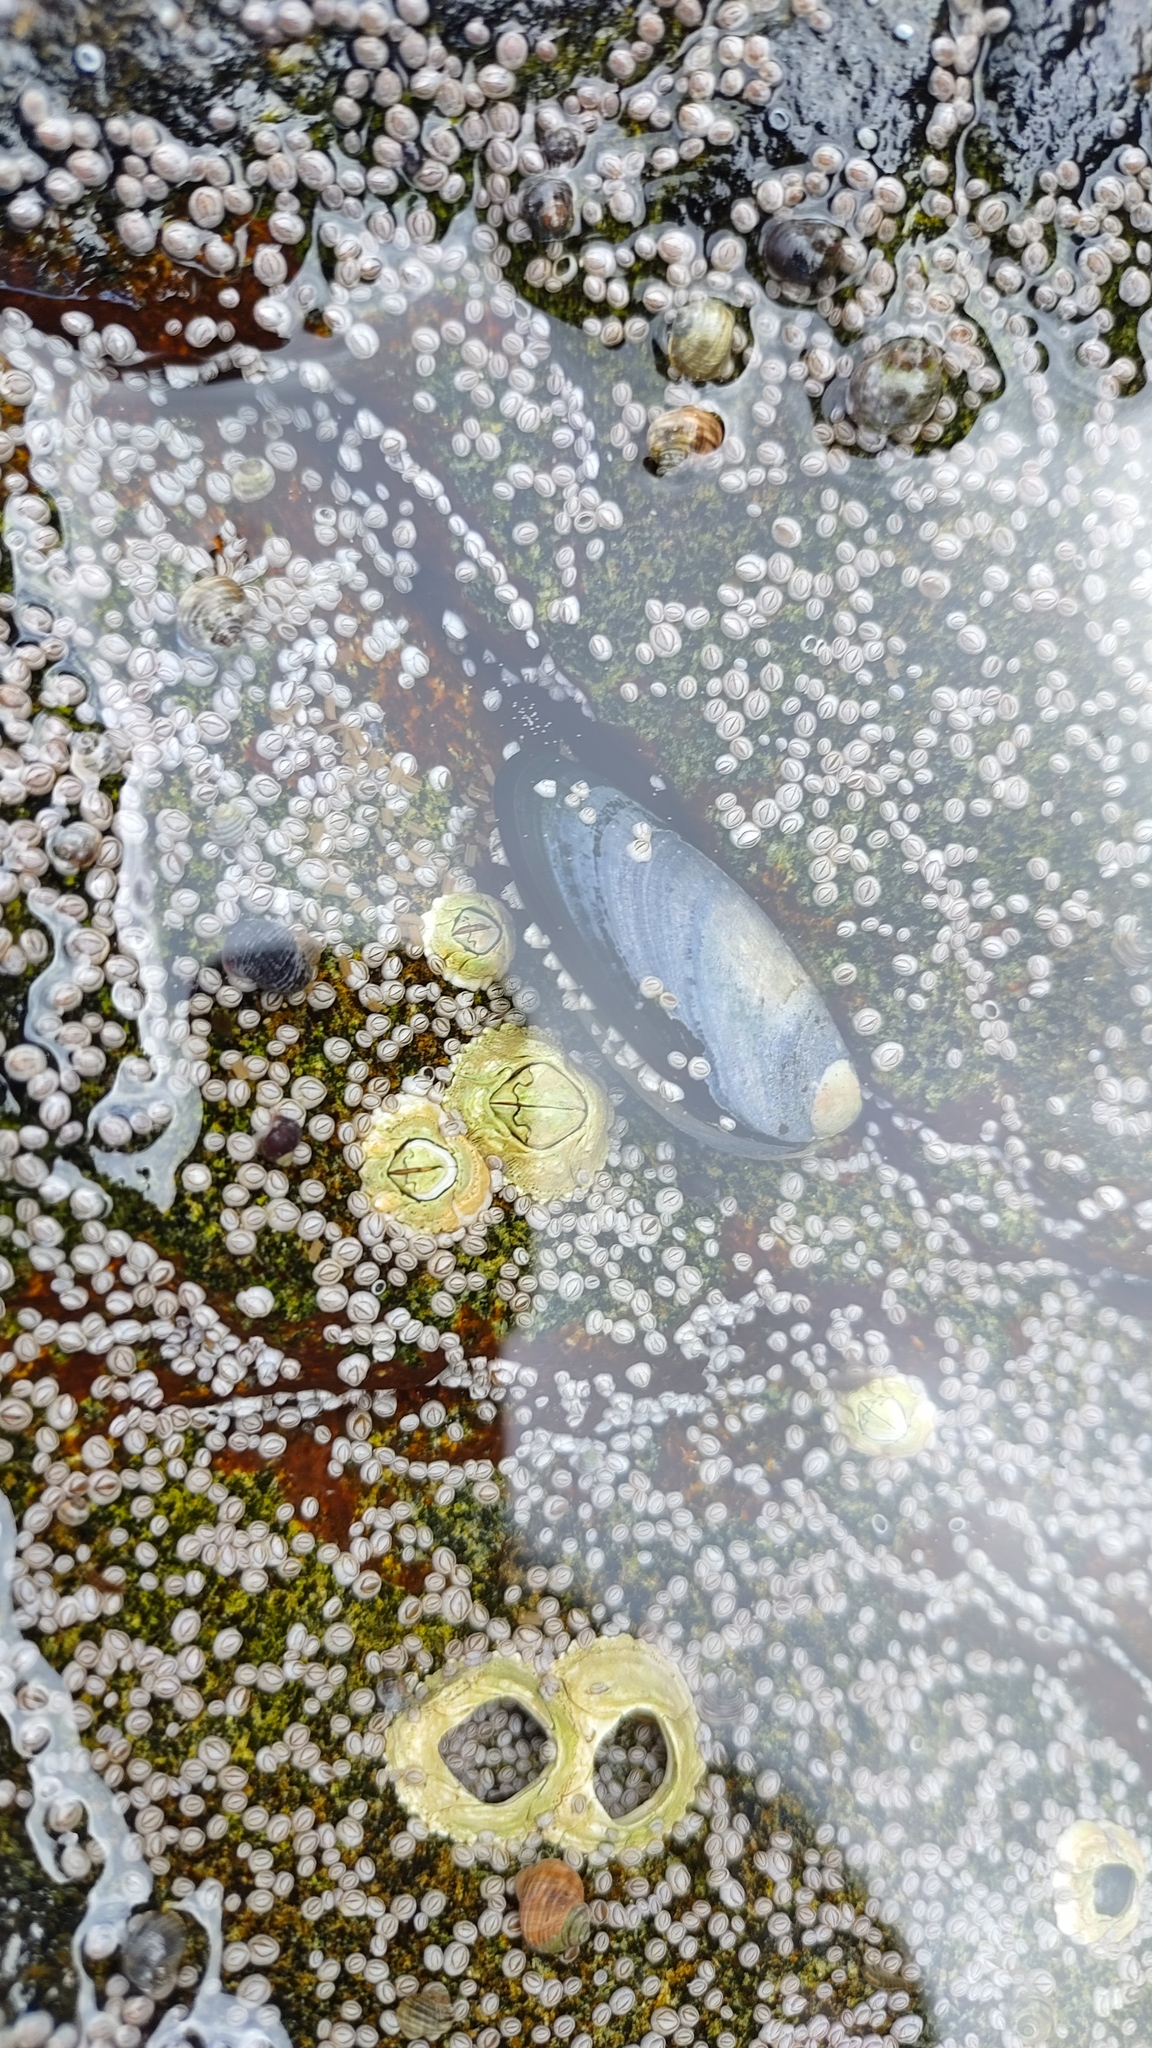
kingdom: Animalia
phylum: Mollusca
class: Bivalvia
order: Mytilida
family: Mytilidae
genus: Mytilus
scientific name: Mytilus edulis
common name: Blue mussel
